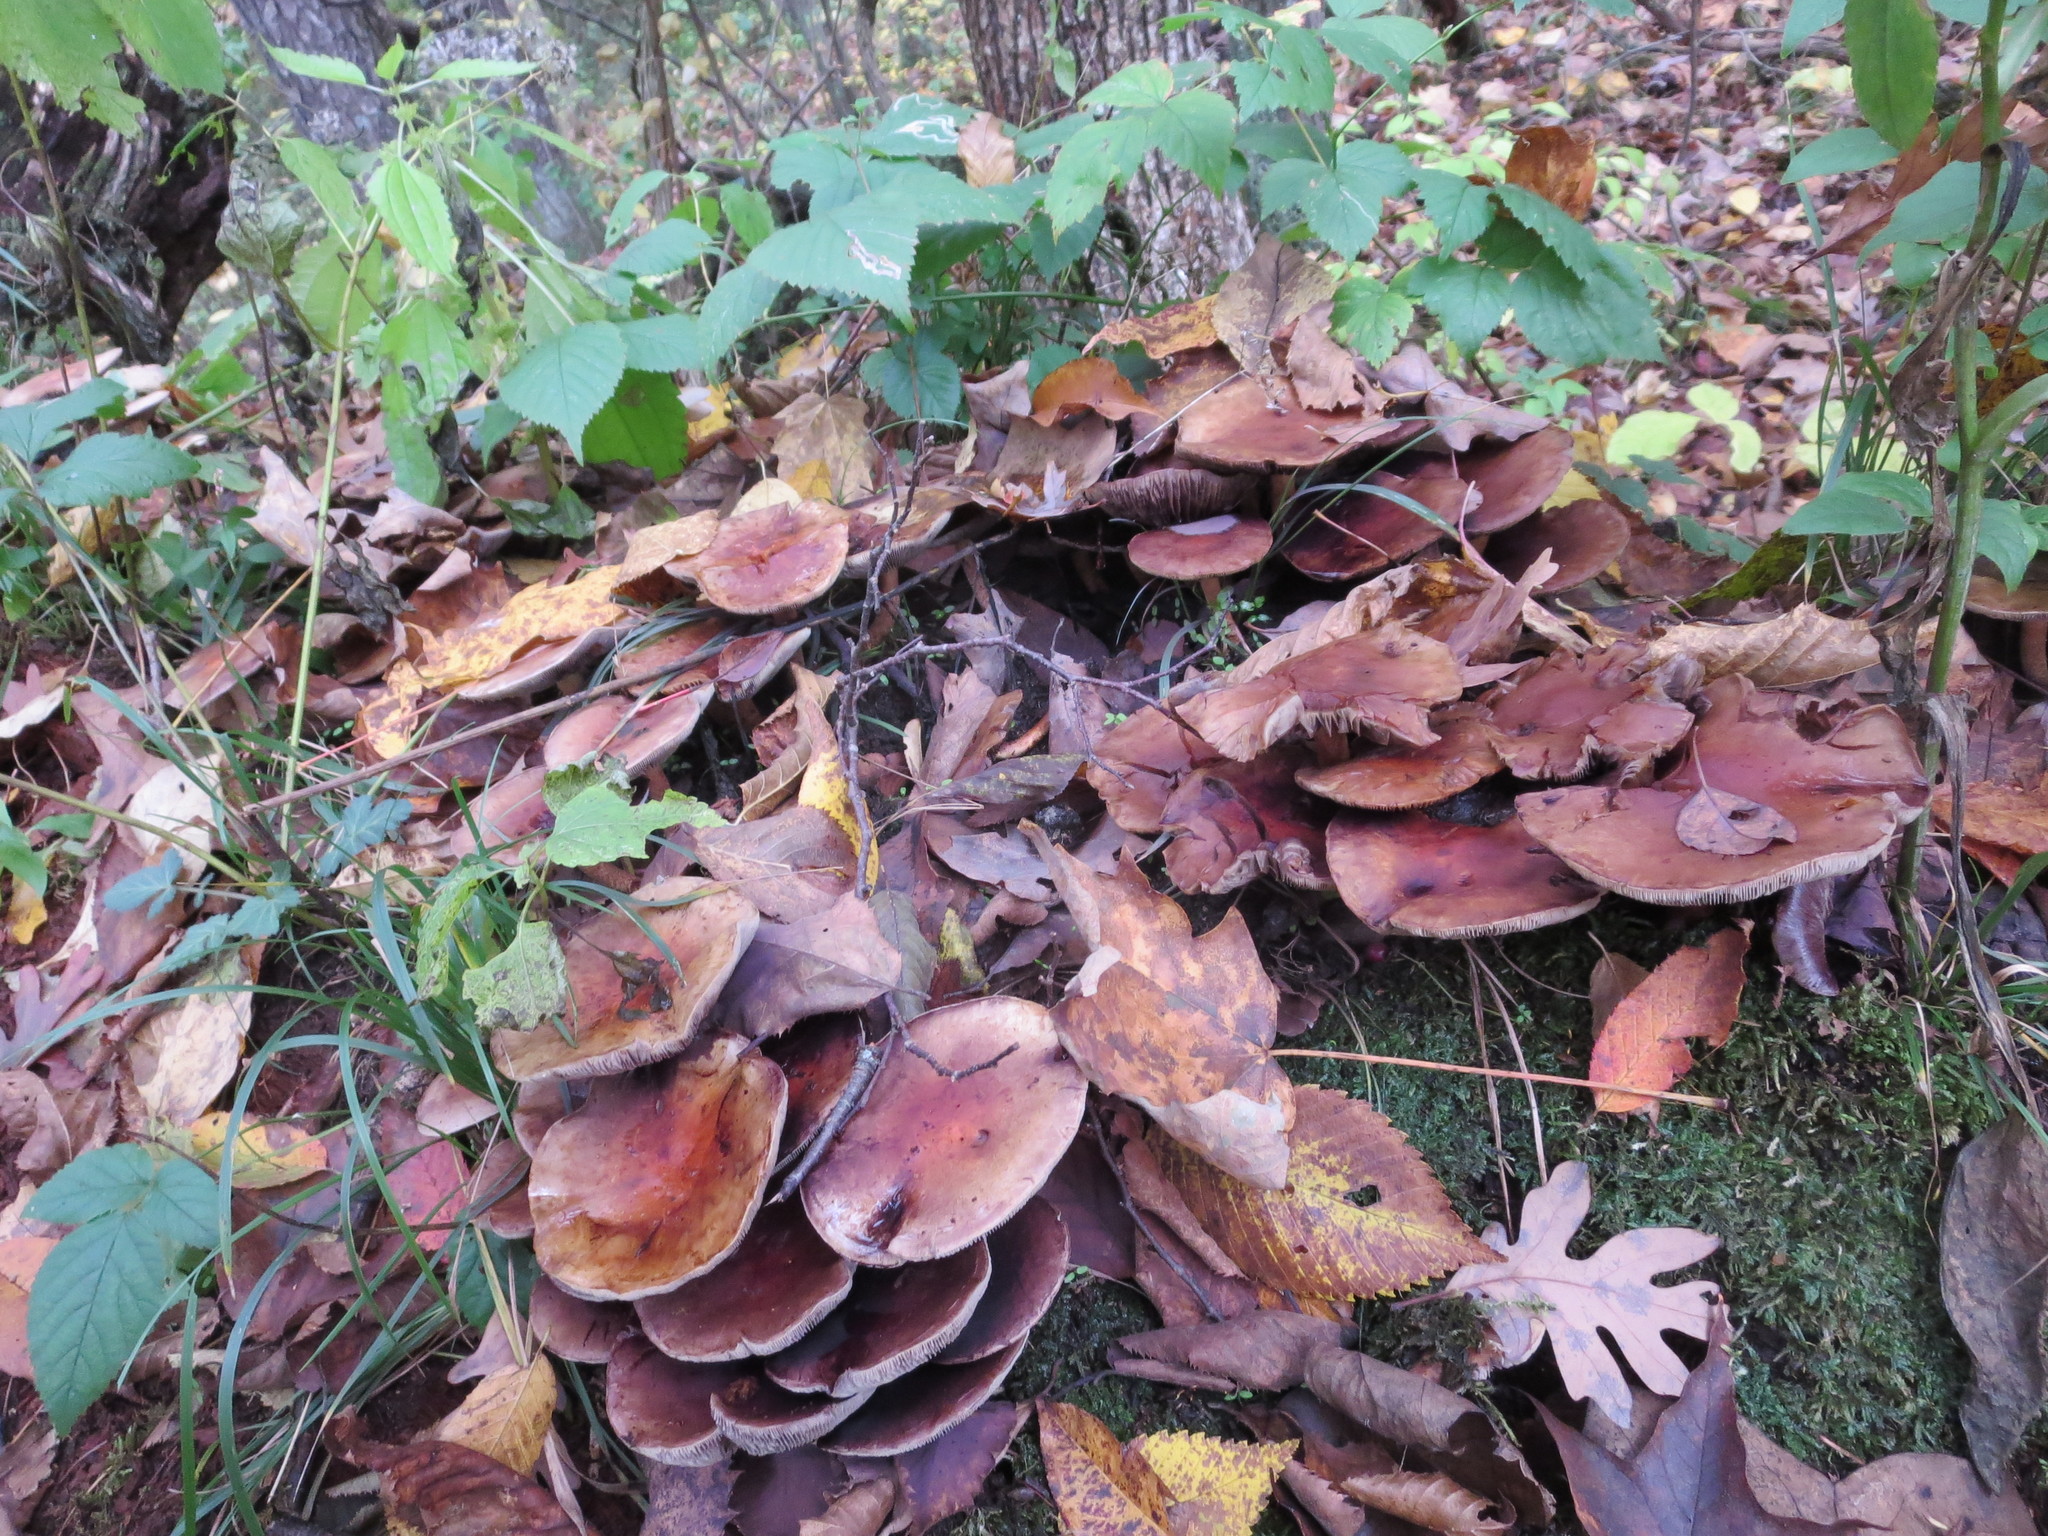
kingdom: Fungi
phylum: Basidiomycota
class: Agaricomycetes
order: Agaricales
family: Strophariaceae
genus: Hypholoma
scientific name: Hypholoma lateritium
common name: Brick caps
